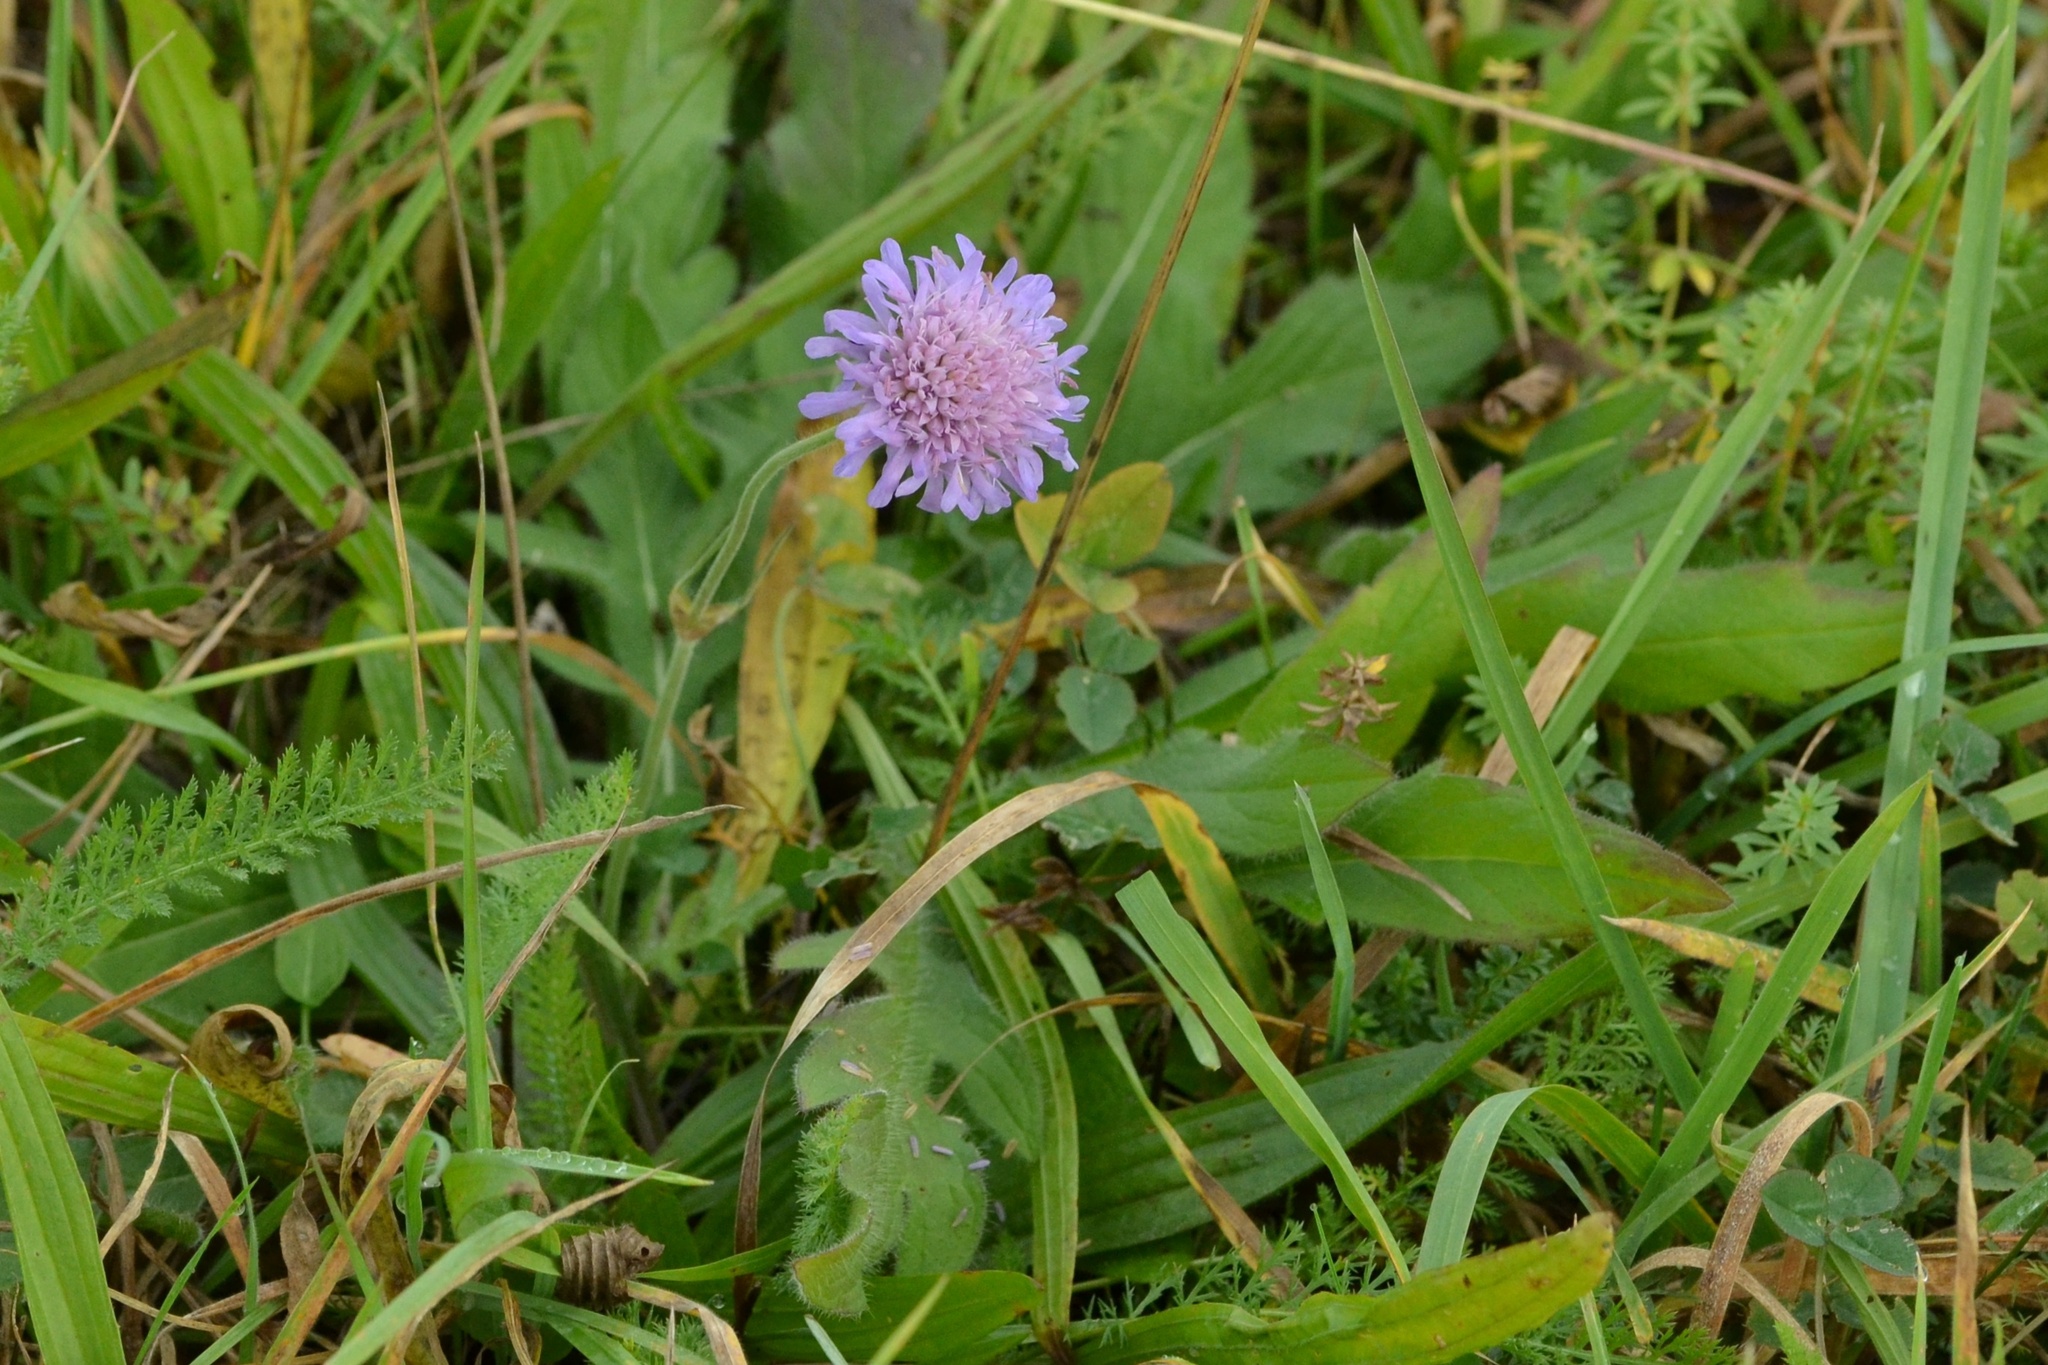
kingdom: Plantae
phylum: Tracheophyta
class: Magnoliopsida
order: Dipsacales
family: Caprifoliaceae
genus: Knautia
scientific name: Knautia arvensis
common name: Field scabiosa
